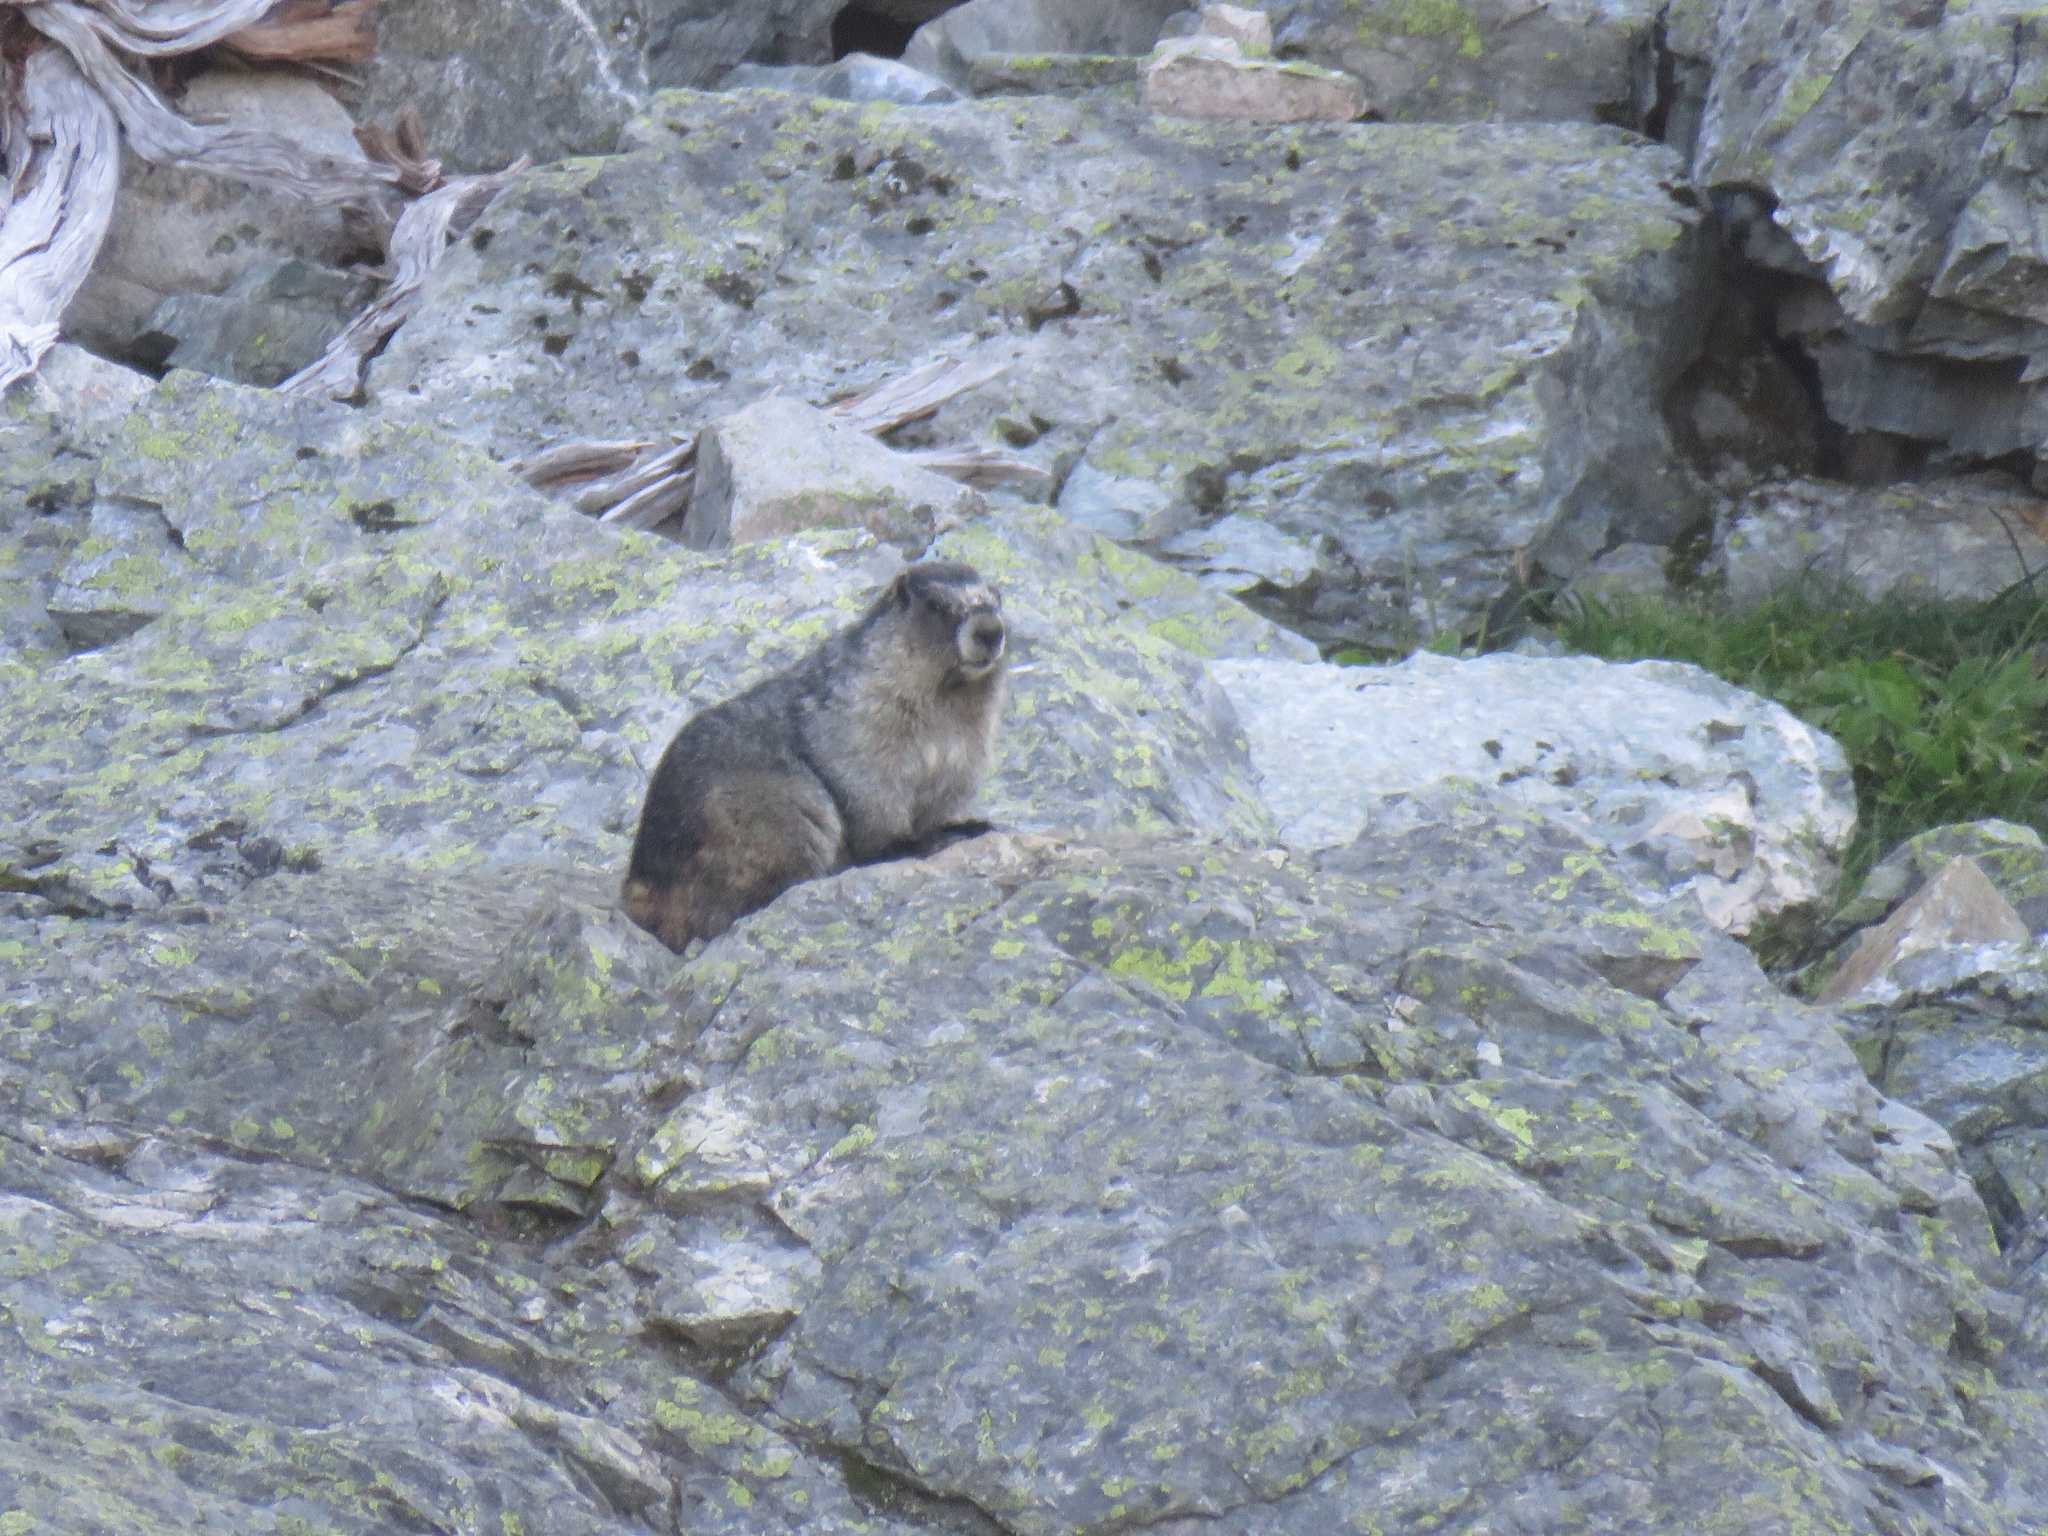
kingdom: Animalia
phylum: Chordata
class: Mammalia
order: Rodentia
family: Sciuridae
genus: Marmota
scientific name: Marmota caligata
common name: Hoary marmot
